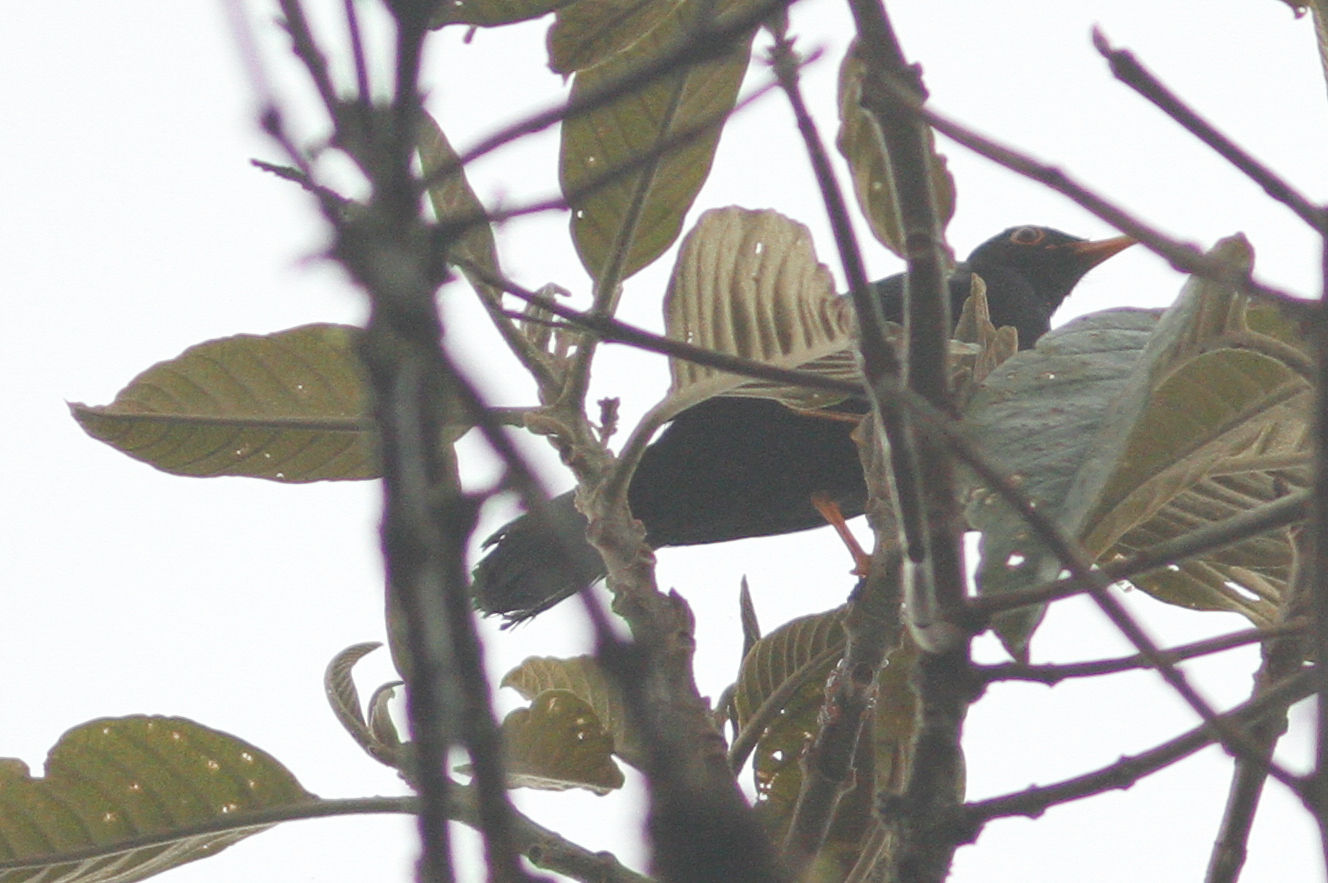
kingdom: Animalia
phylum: Chordata
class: Aves
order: Passeriformes
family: Turdidae
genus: Turdus
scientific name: Turdus serranus
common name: Glossy-black thrush
